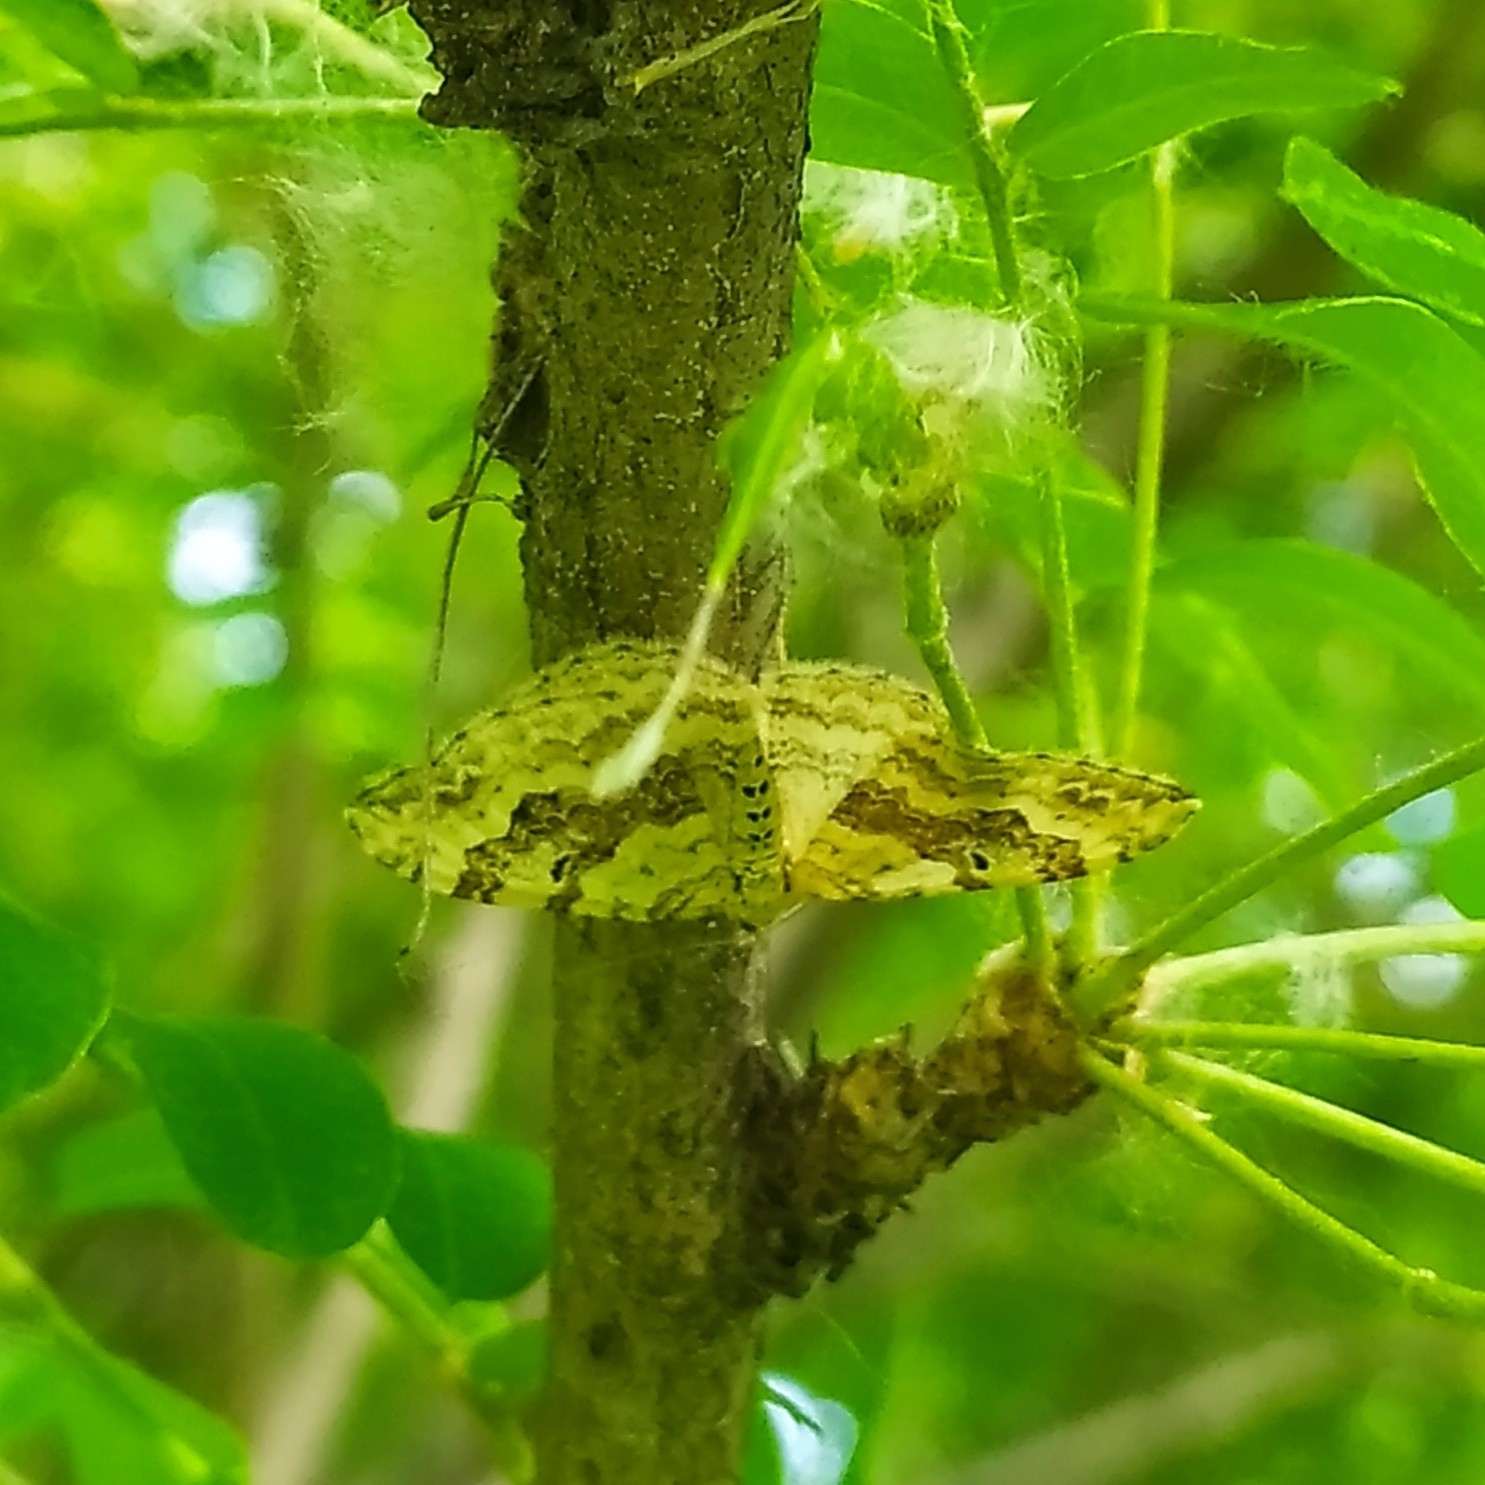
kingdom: Animalia
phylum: Arthropoda
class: Insecta
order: Lepidoptera
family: Geometridae
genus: Xanthorhoe
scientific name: Xanthorhoe montanata
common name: Silver-ground carpet
